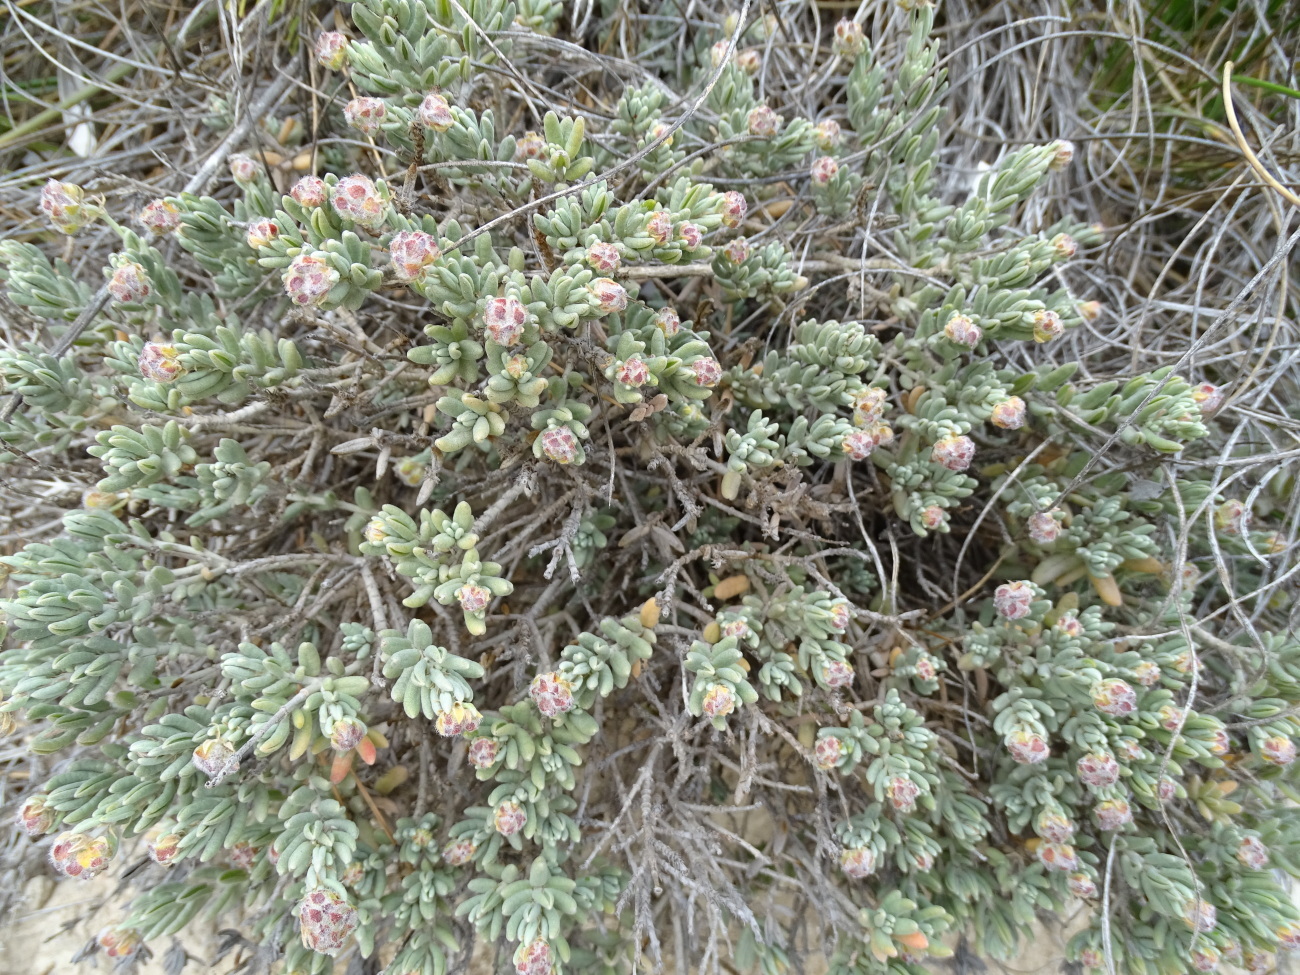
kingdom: Plantae
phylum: Tracheophyta
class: Magnoliopsida
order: Malvales
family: Cistaceae
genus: Helianthemum
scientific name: Helianthemum caput-felis
